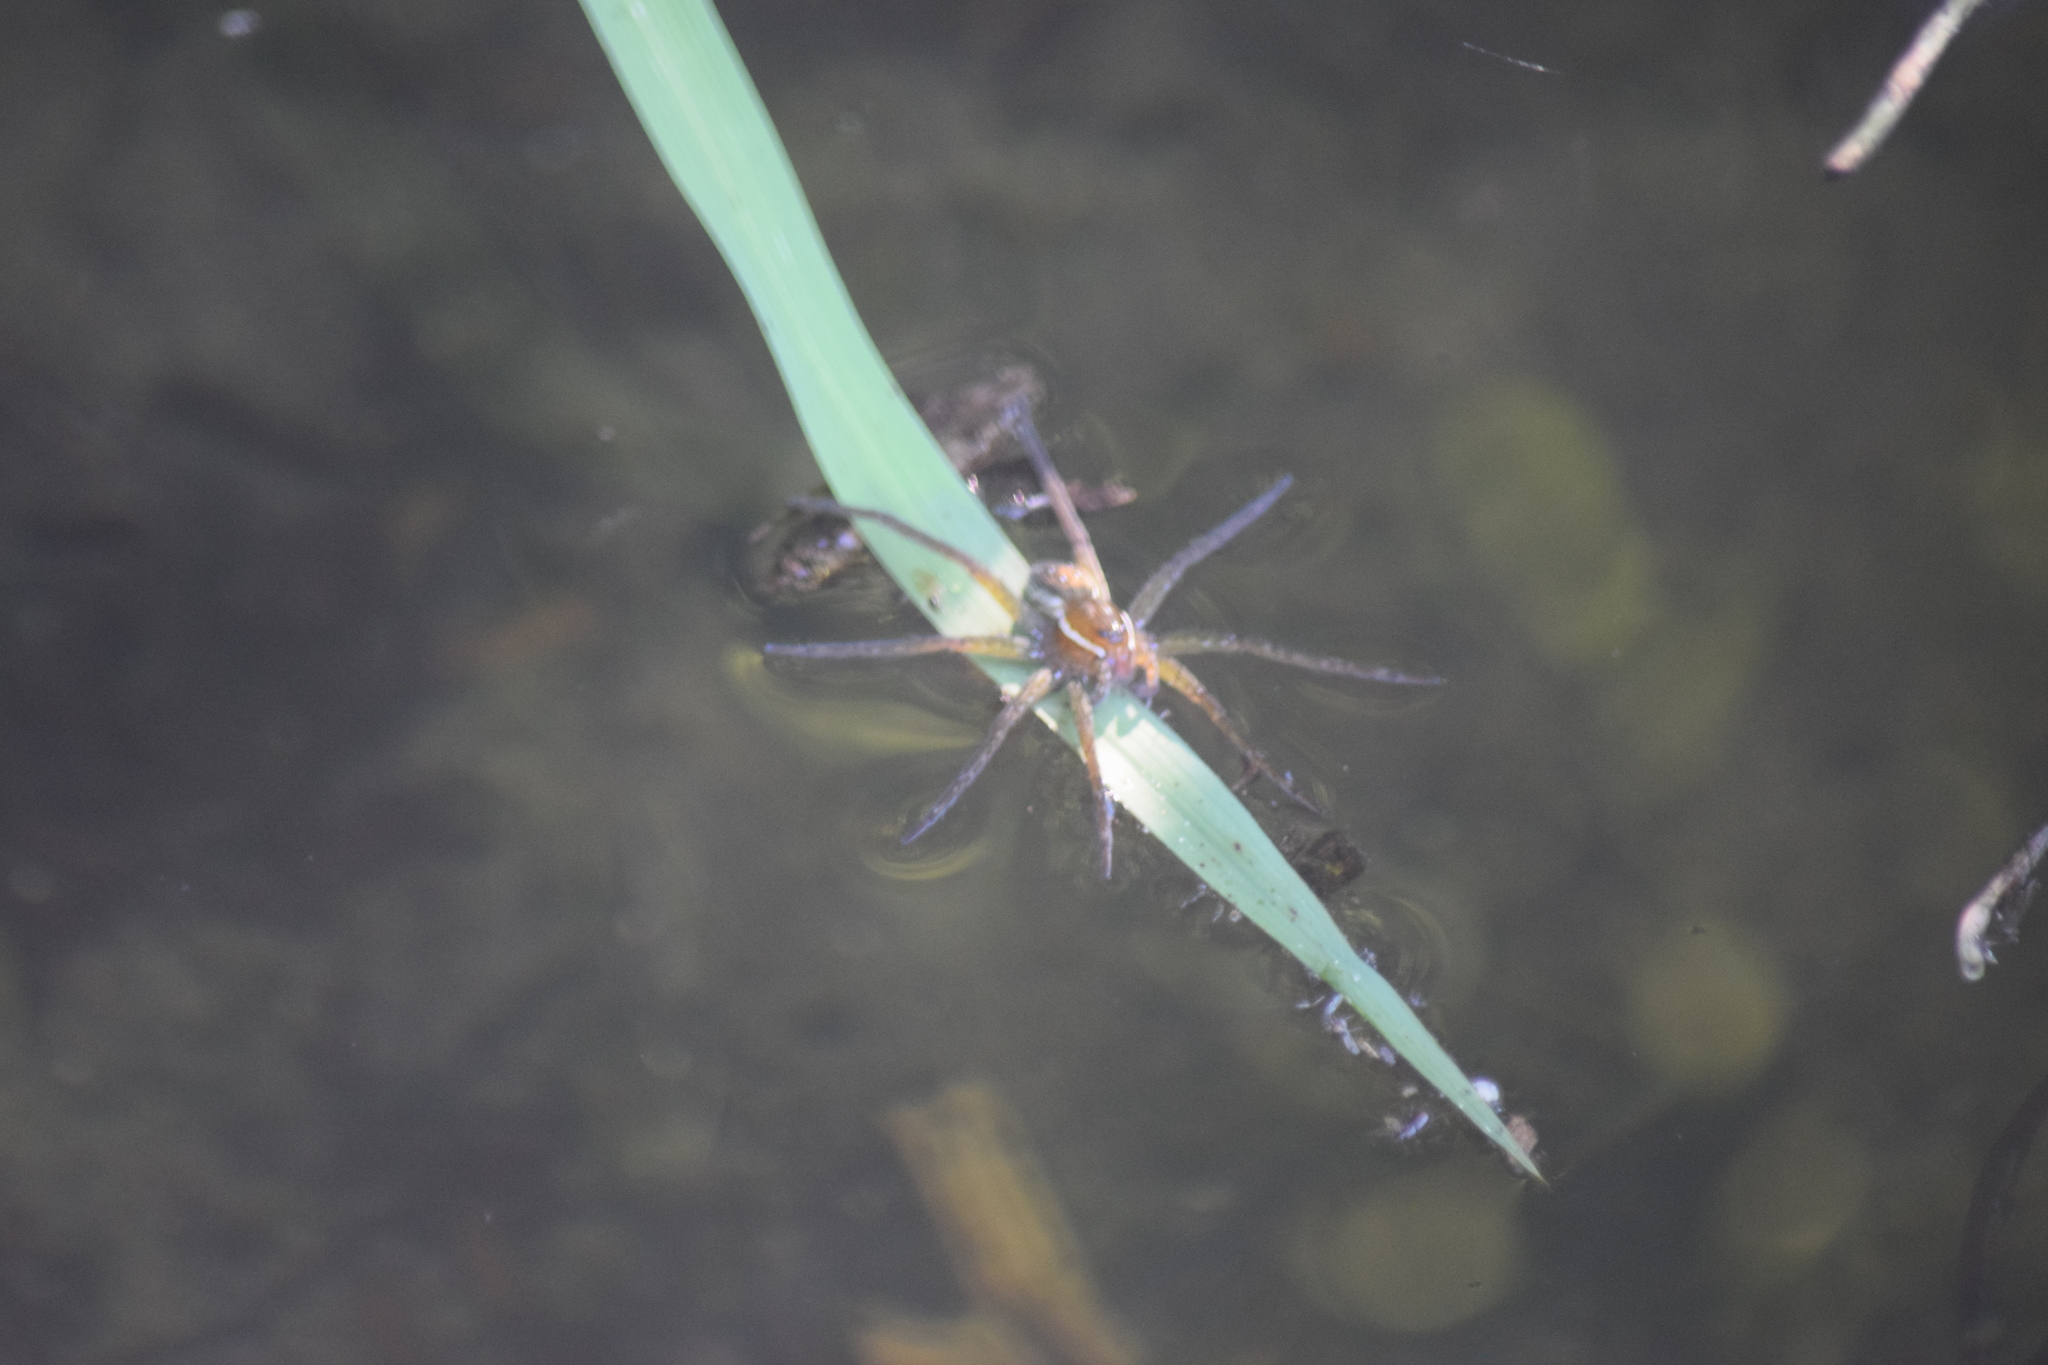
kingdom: Animalia
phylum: Arthropoda
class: Arachnida
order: Araneae
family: Pisauridae
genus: Dolomedes
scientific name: Dolomedes triton
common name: Six-spotted fishing spider
